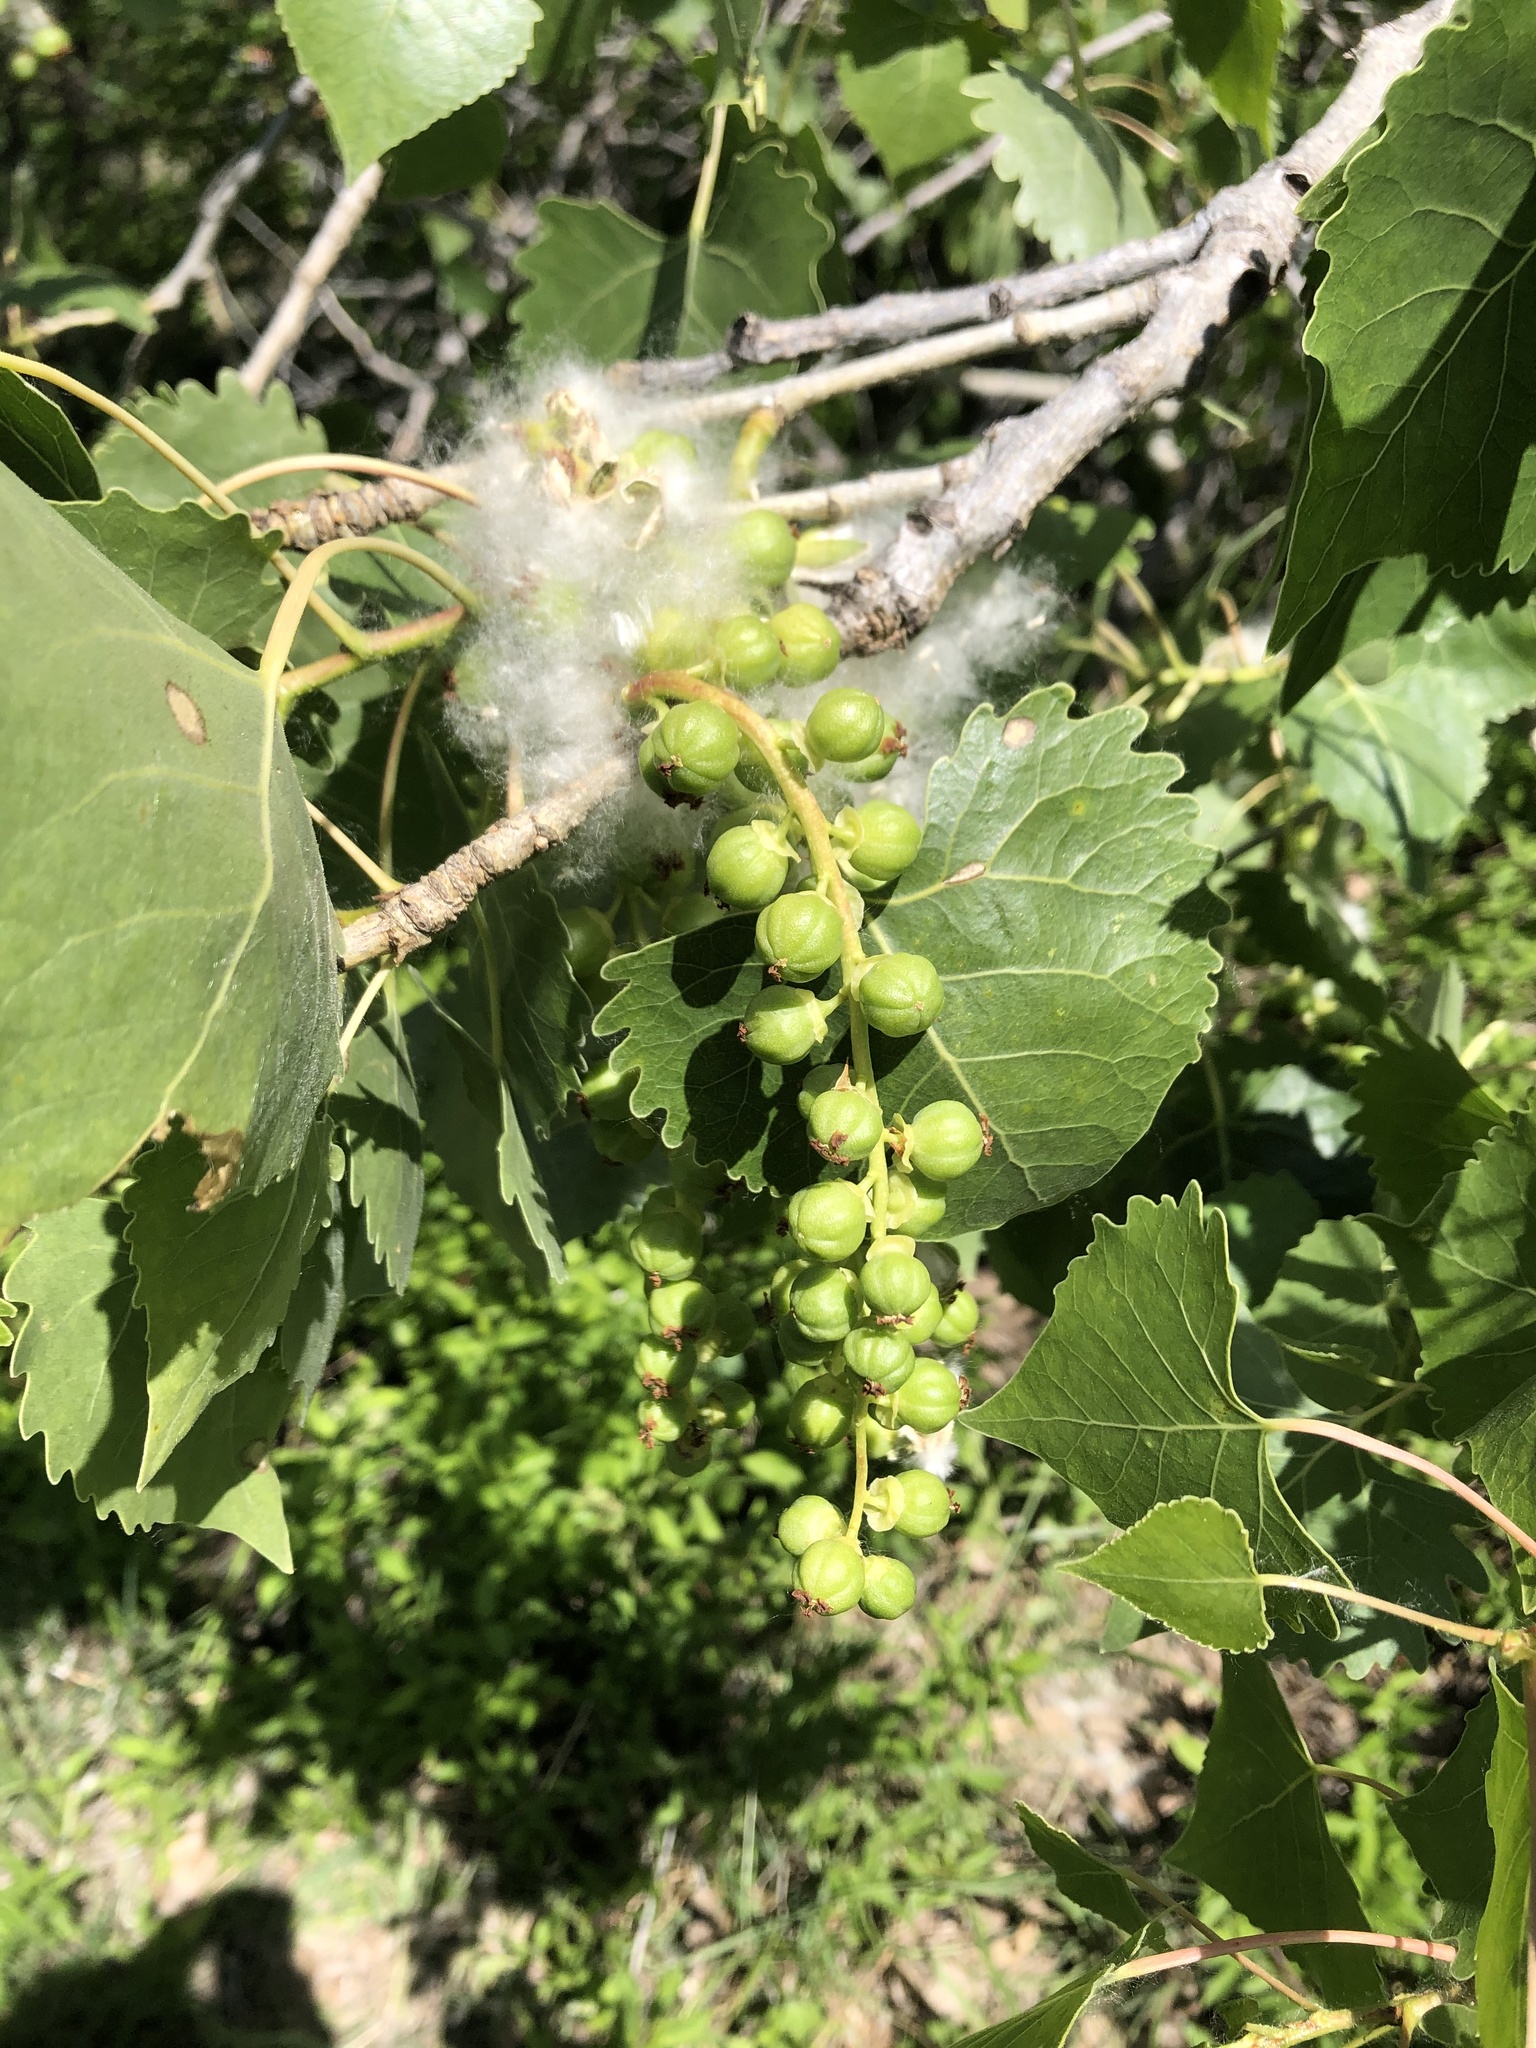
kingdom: Plantae
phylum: Tracheophyta
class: Magnoliopsida
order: Malpighiales
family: Salicaceae
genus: Populus
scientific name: Populus fremontii
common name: Fremont's cottonwood
